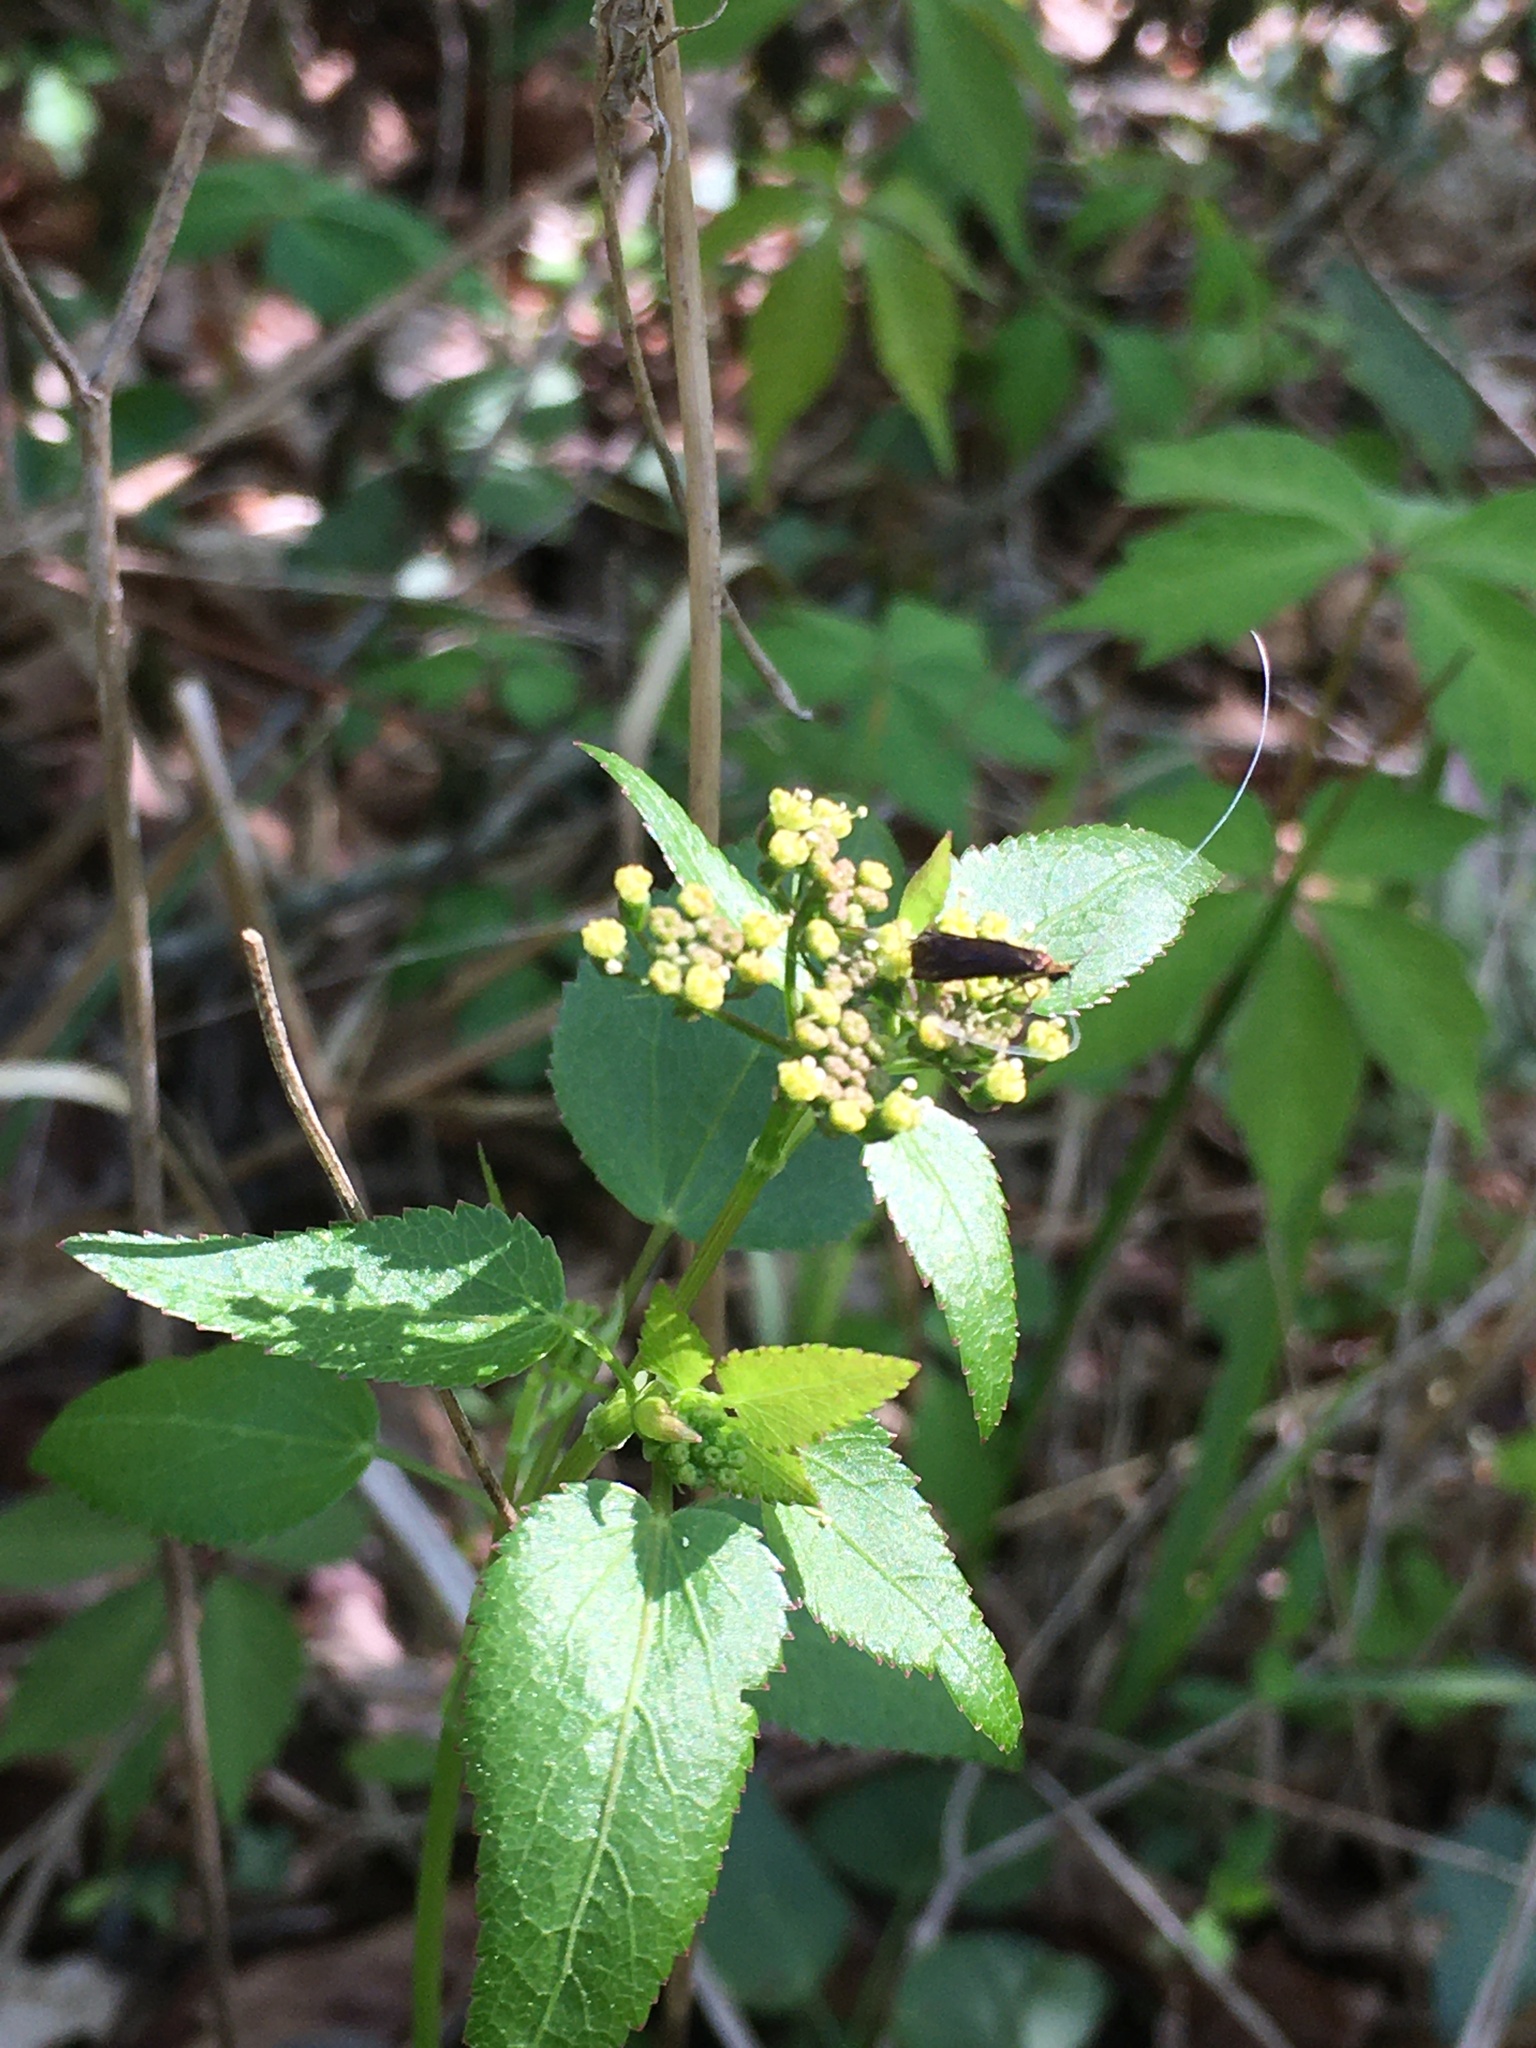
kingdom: Plantae
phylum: Tracheophyta
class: Magnoliopsida
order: Apiales
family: Apiaceae
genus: Thaspium
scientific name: Thaspium trifoliatum
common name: Purple meadow-parsnip
